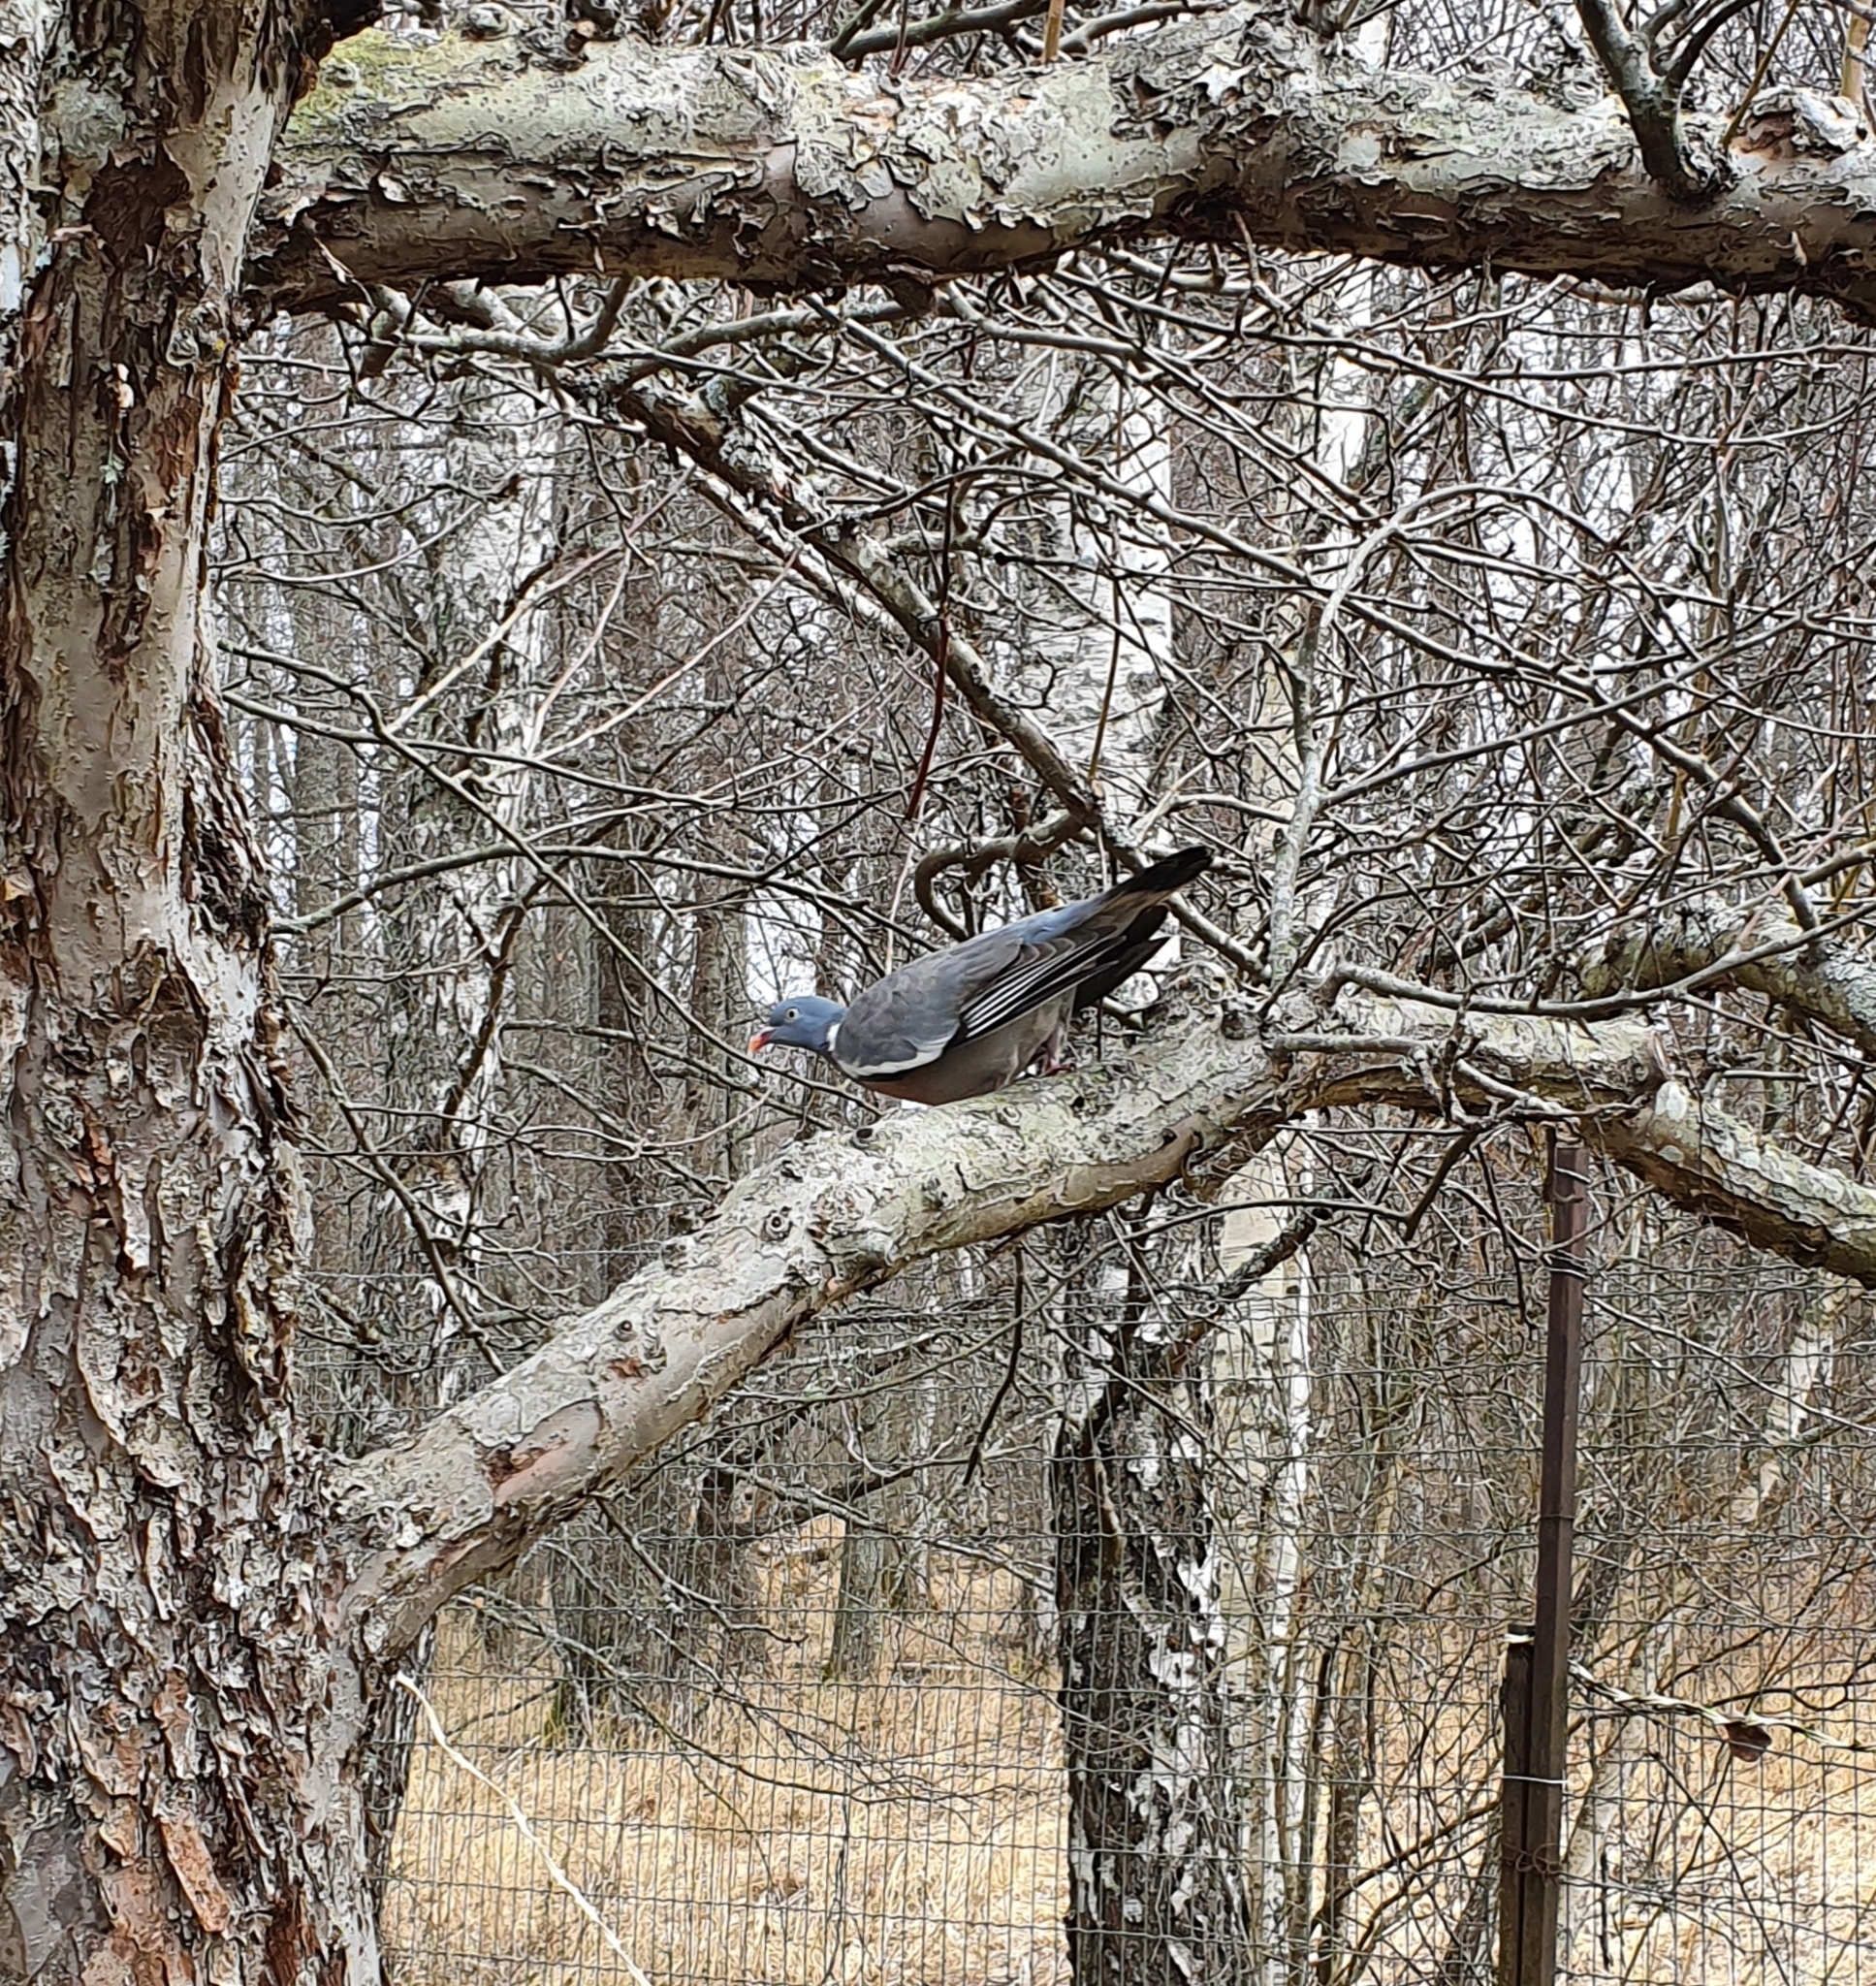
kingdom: Animalia
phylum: Chordata
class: Aves
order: Columbiformes
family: Columbidae
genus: Columba
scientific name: Columba palumbus
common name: Common wood pigeon
